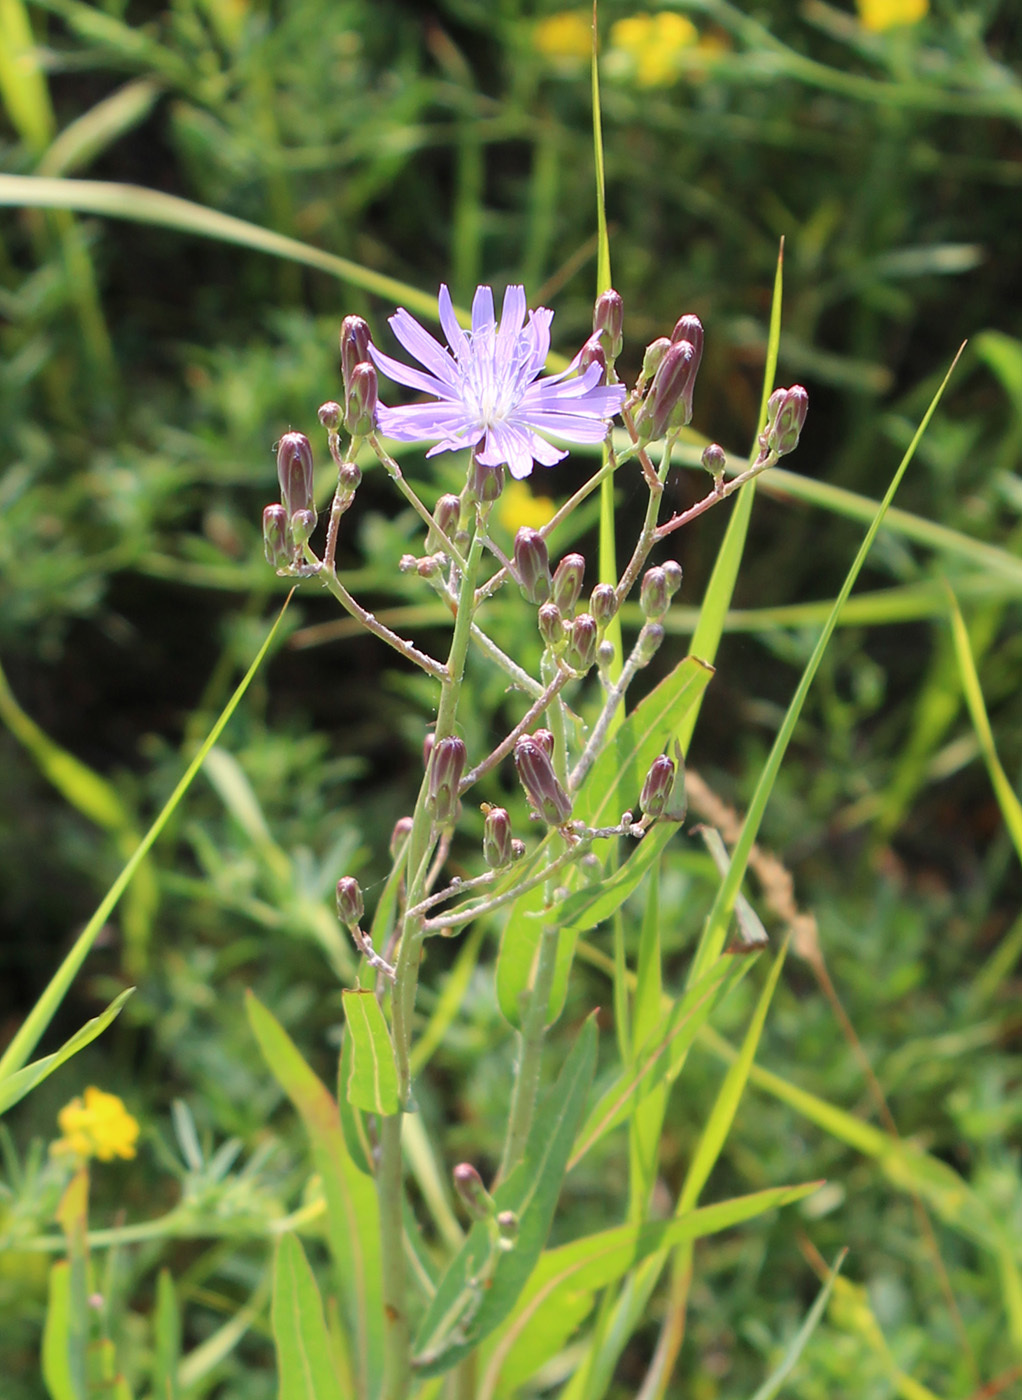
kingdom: Plantae
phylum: Tracheophyta
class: Magnoliopsida
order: Asterales
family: Asteraceae
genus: Lactuca
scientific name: Lactuca tatarica
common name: Blue lettuce
